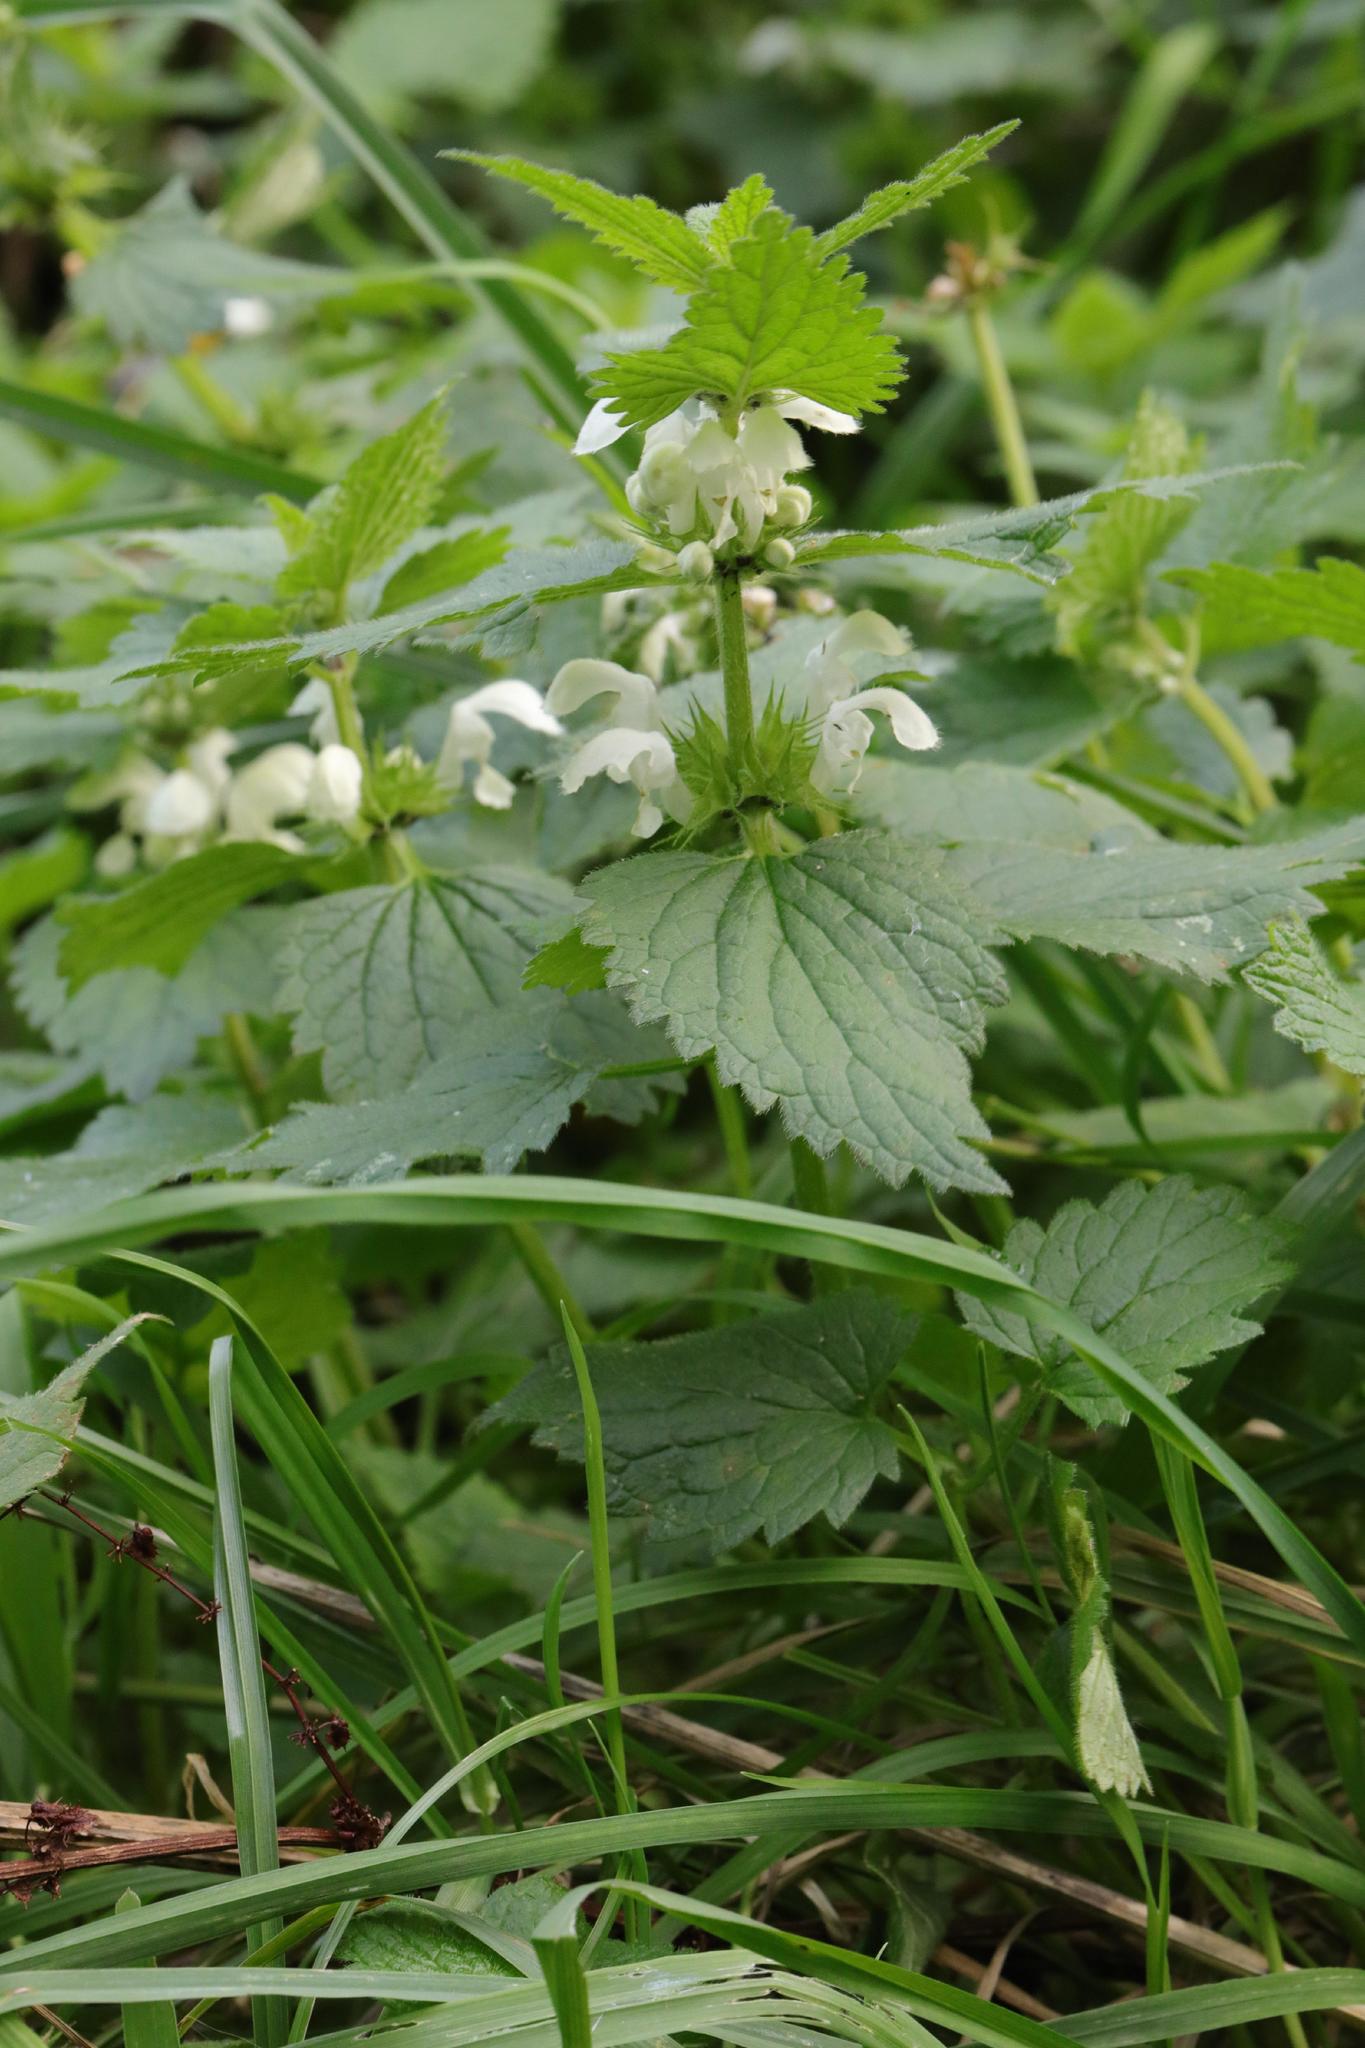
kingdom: Plantae
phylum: Tracheophyta
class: Magnoliopsida
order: Lamiales
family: Lamiaceae
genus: Lamium
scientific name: Lamium album
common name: White dead-nettle
